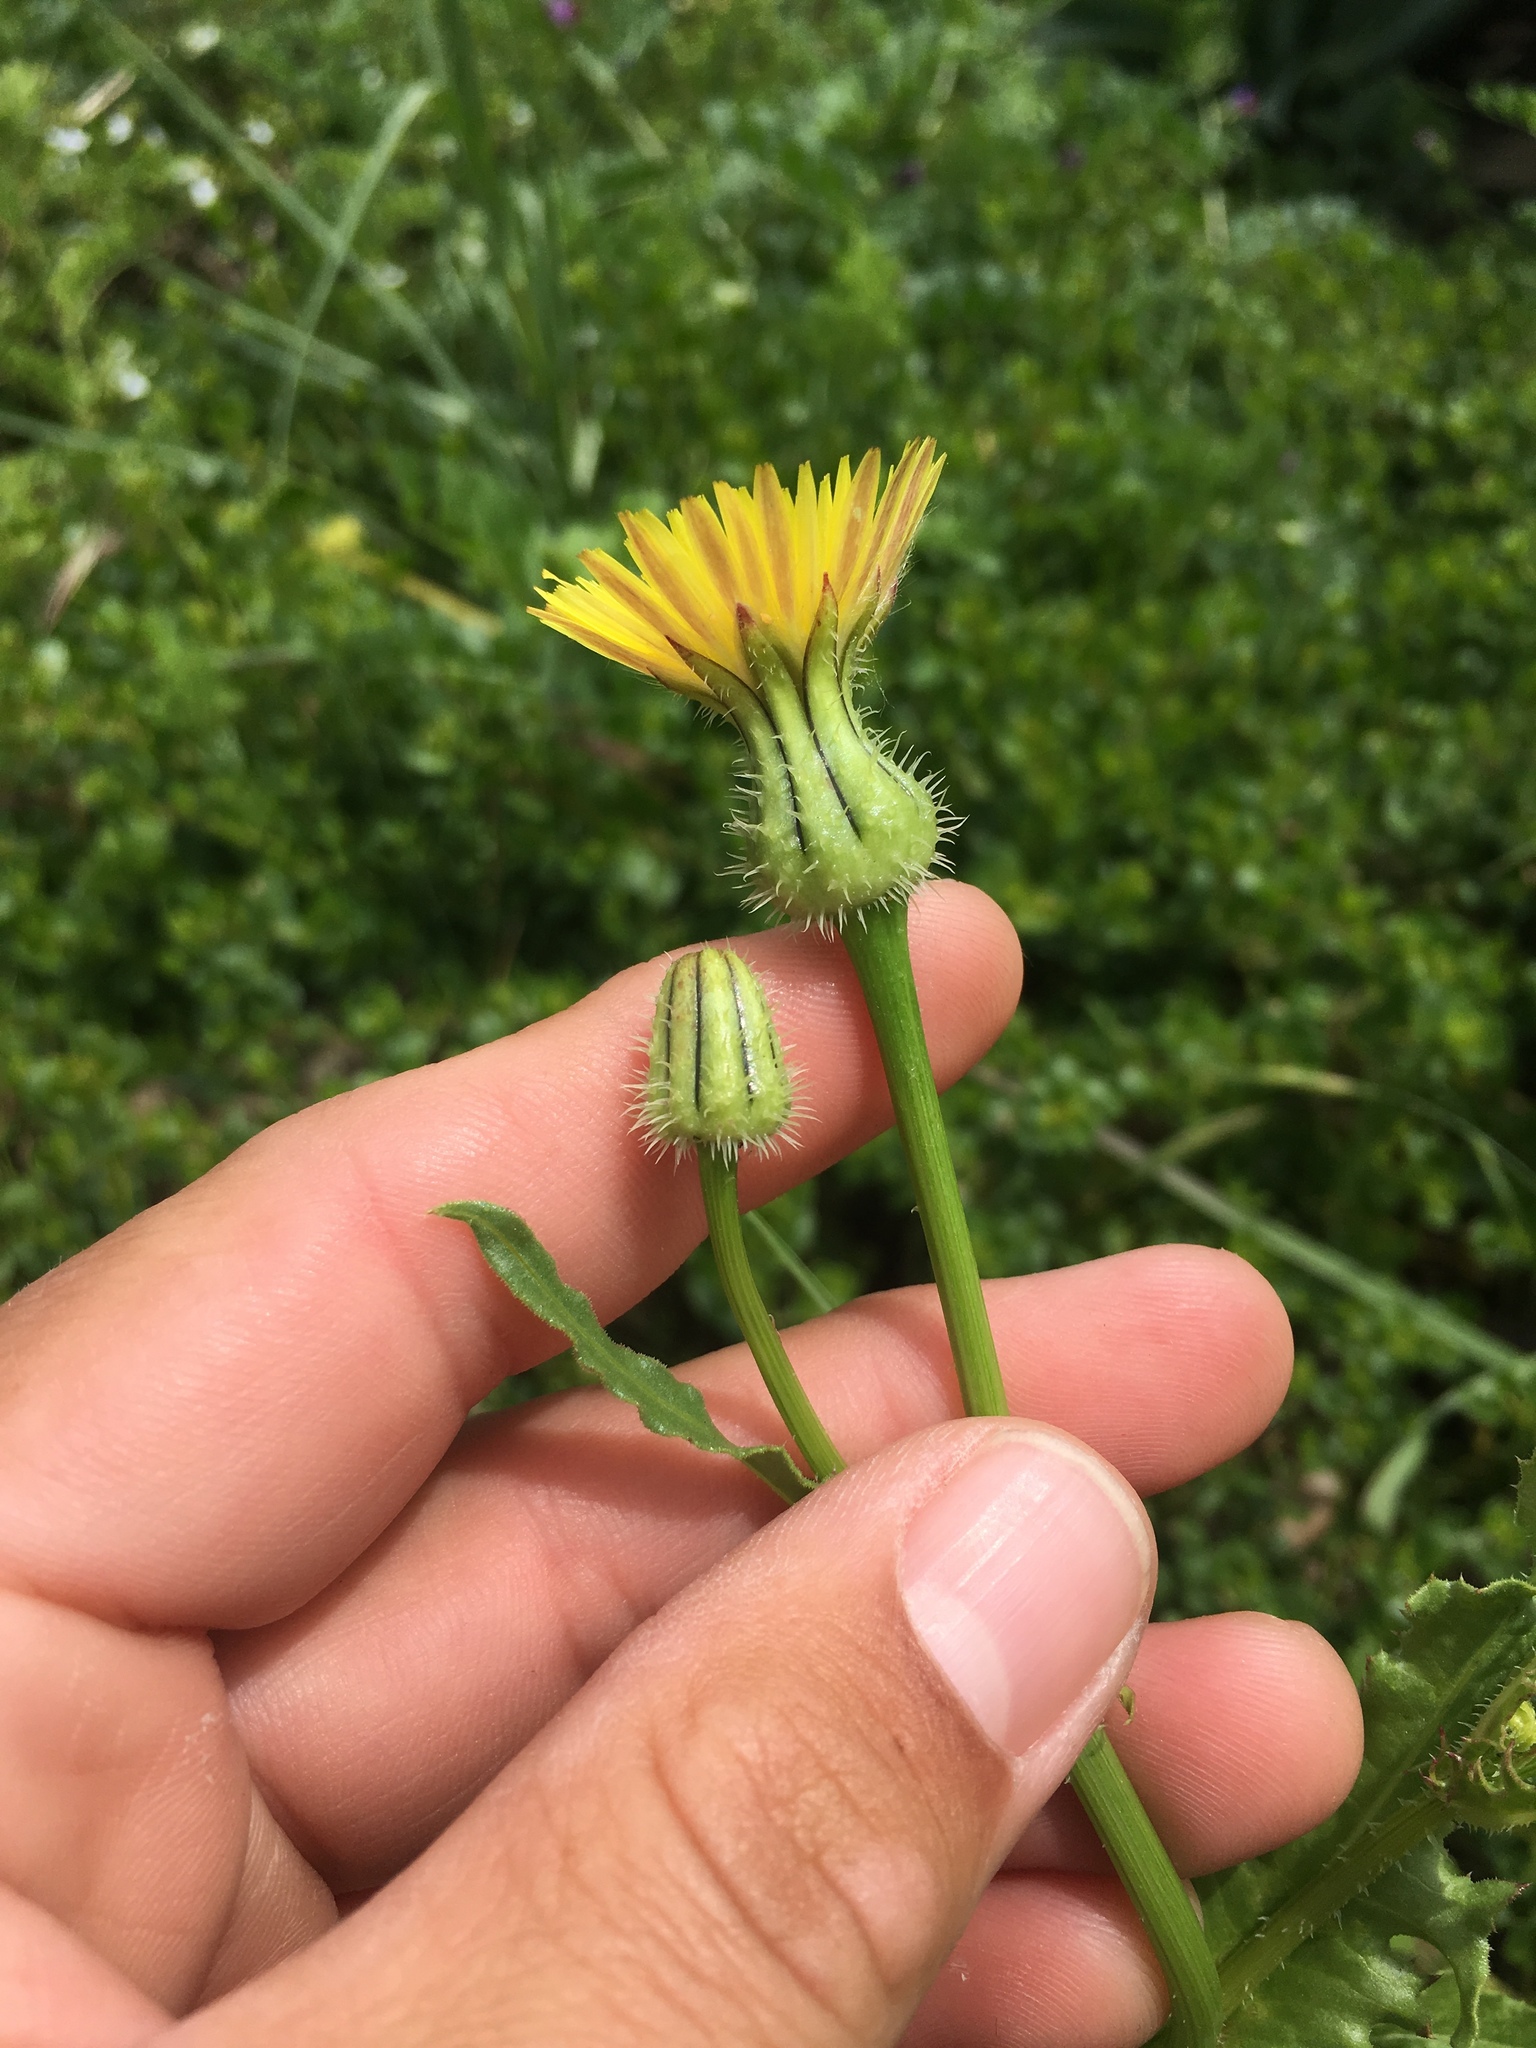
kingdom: Plantae
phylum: Tracheophyta
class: Magnoliopsida
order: Asterales
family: Asteraceae
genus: Urospermum
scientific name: Urospermum picroides
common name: False hawkbit
